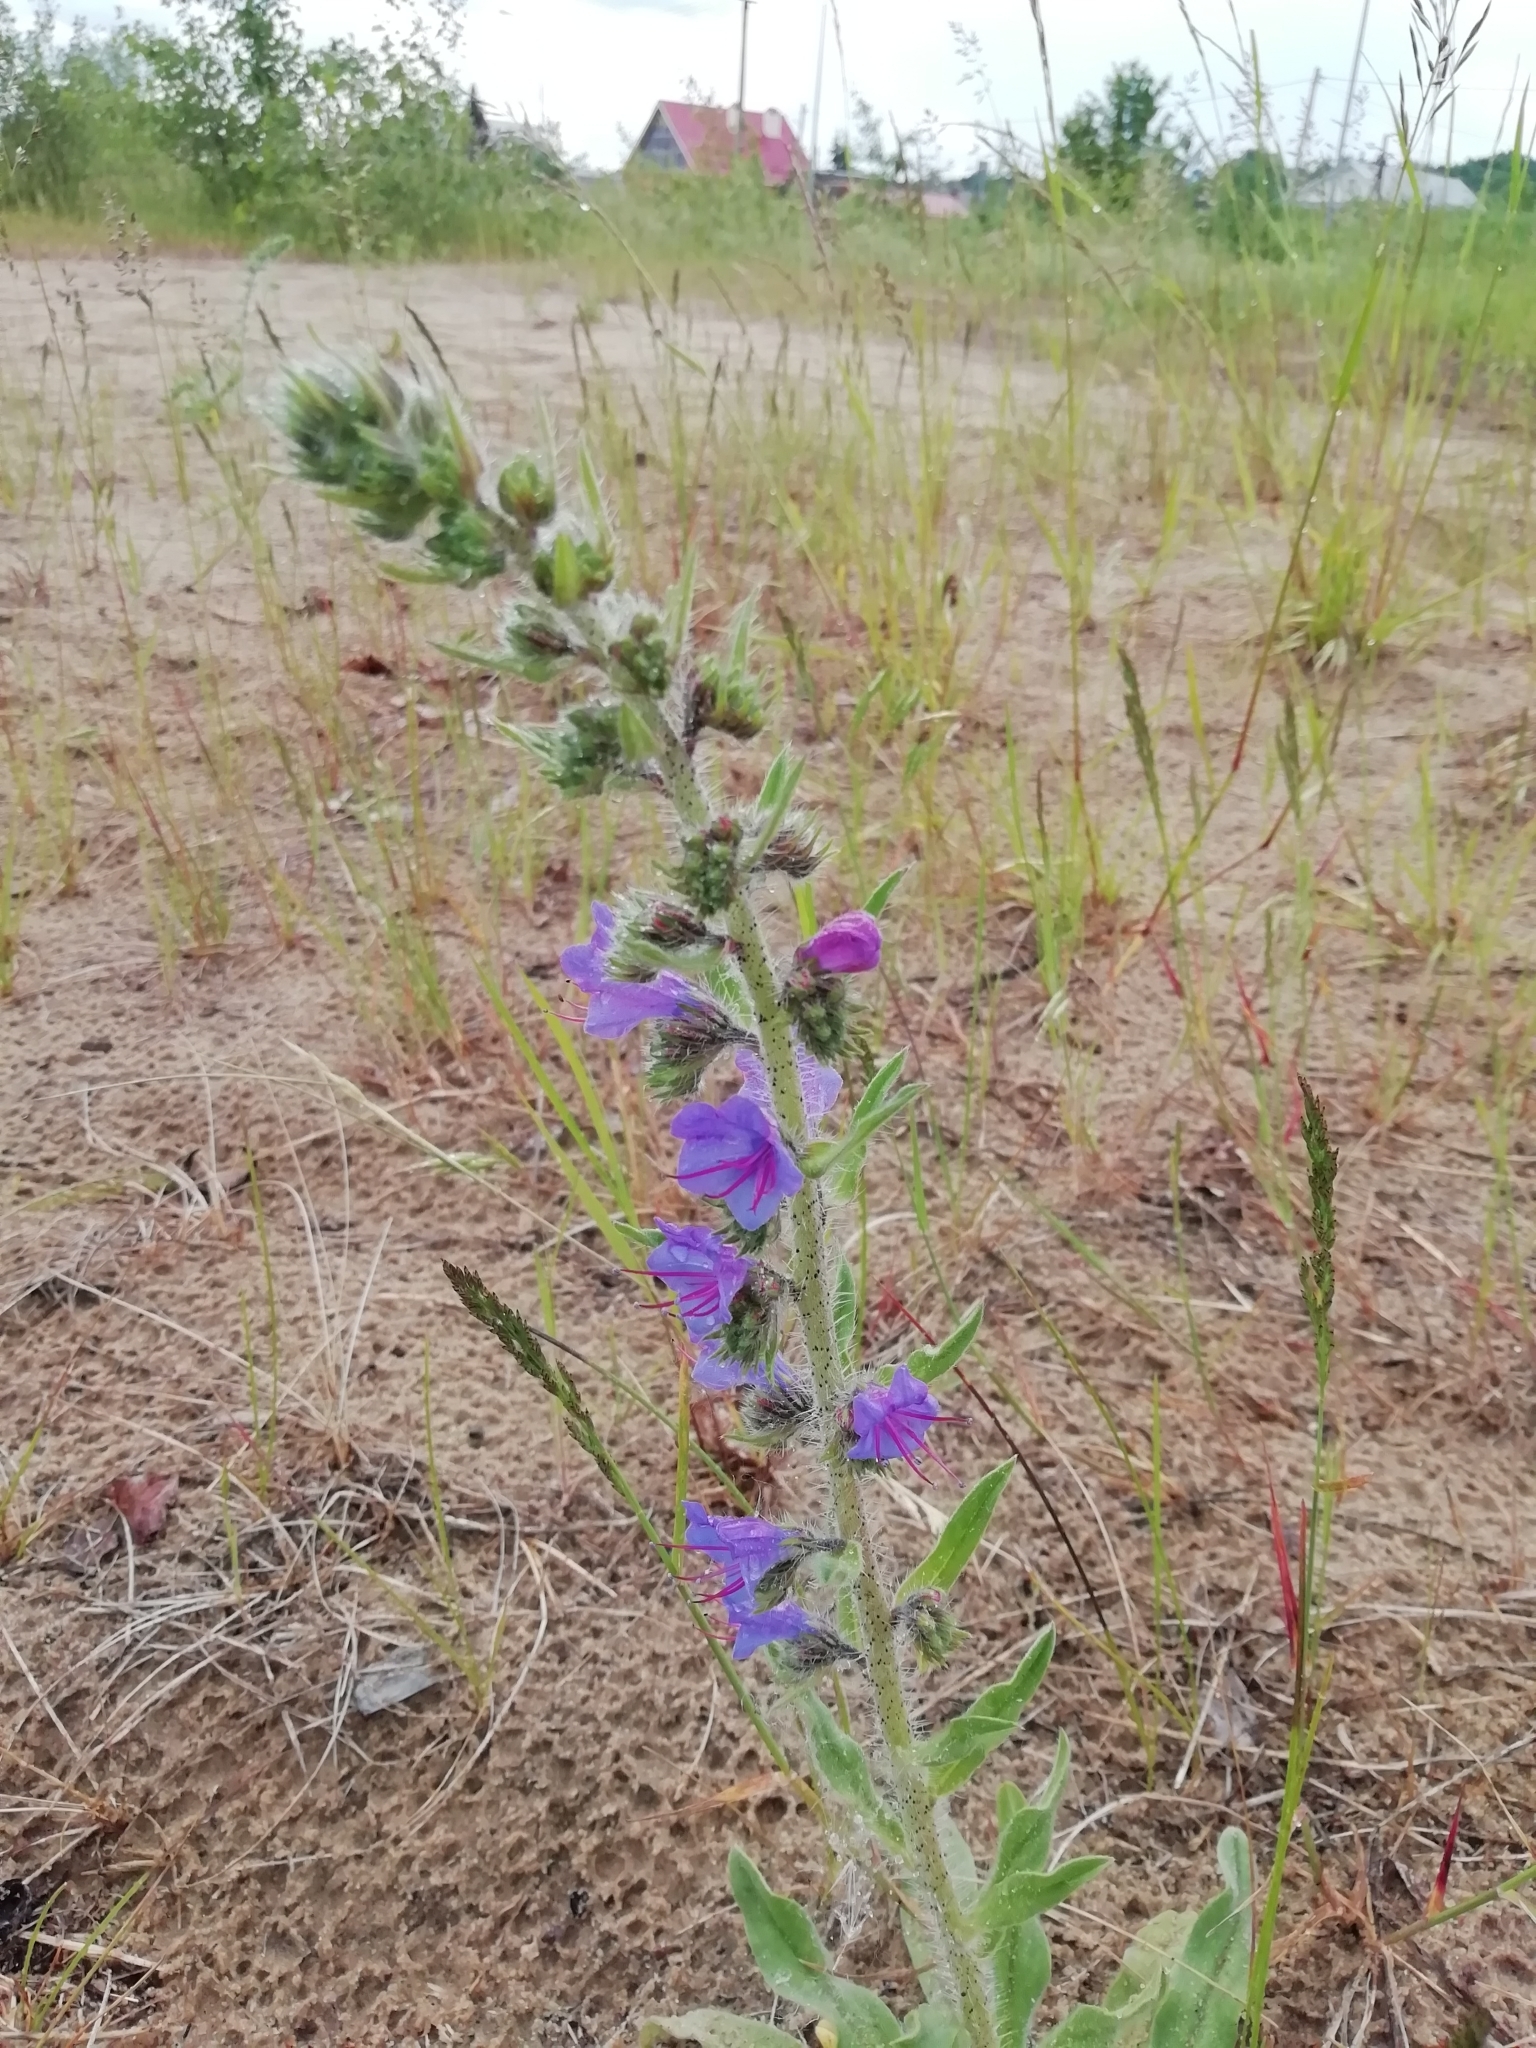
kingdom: Plantae
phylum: Tracheophyta
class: Magnoliopsida
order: Boraginales
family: Boraginaceae
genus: Echium
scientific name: Echium vulgare
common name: Common viper's bugloss
